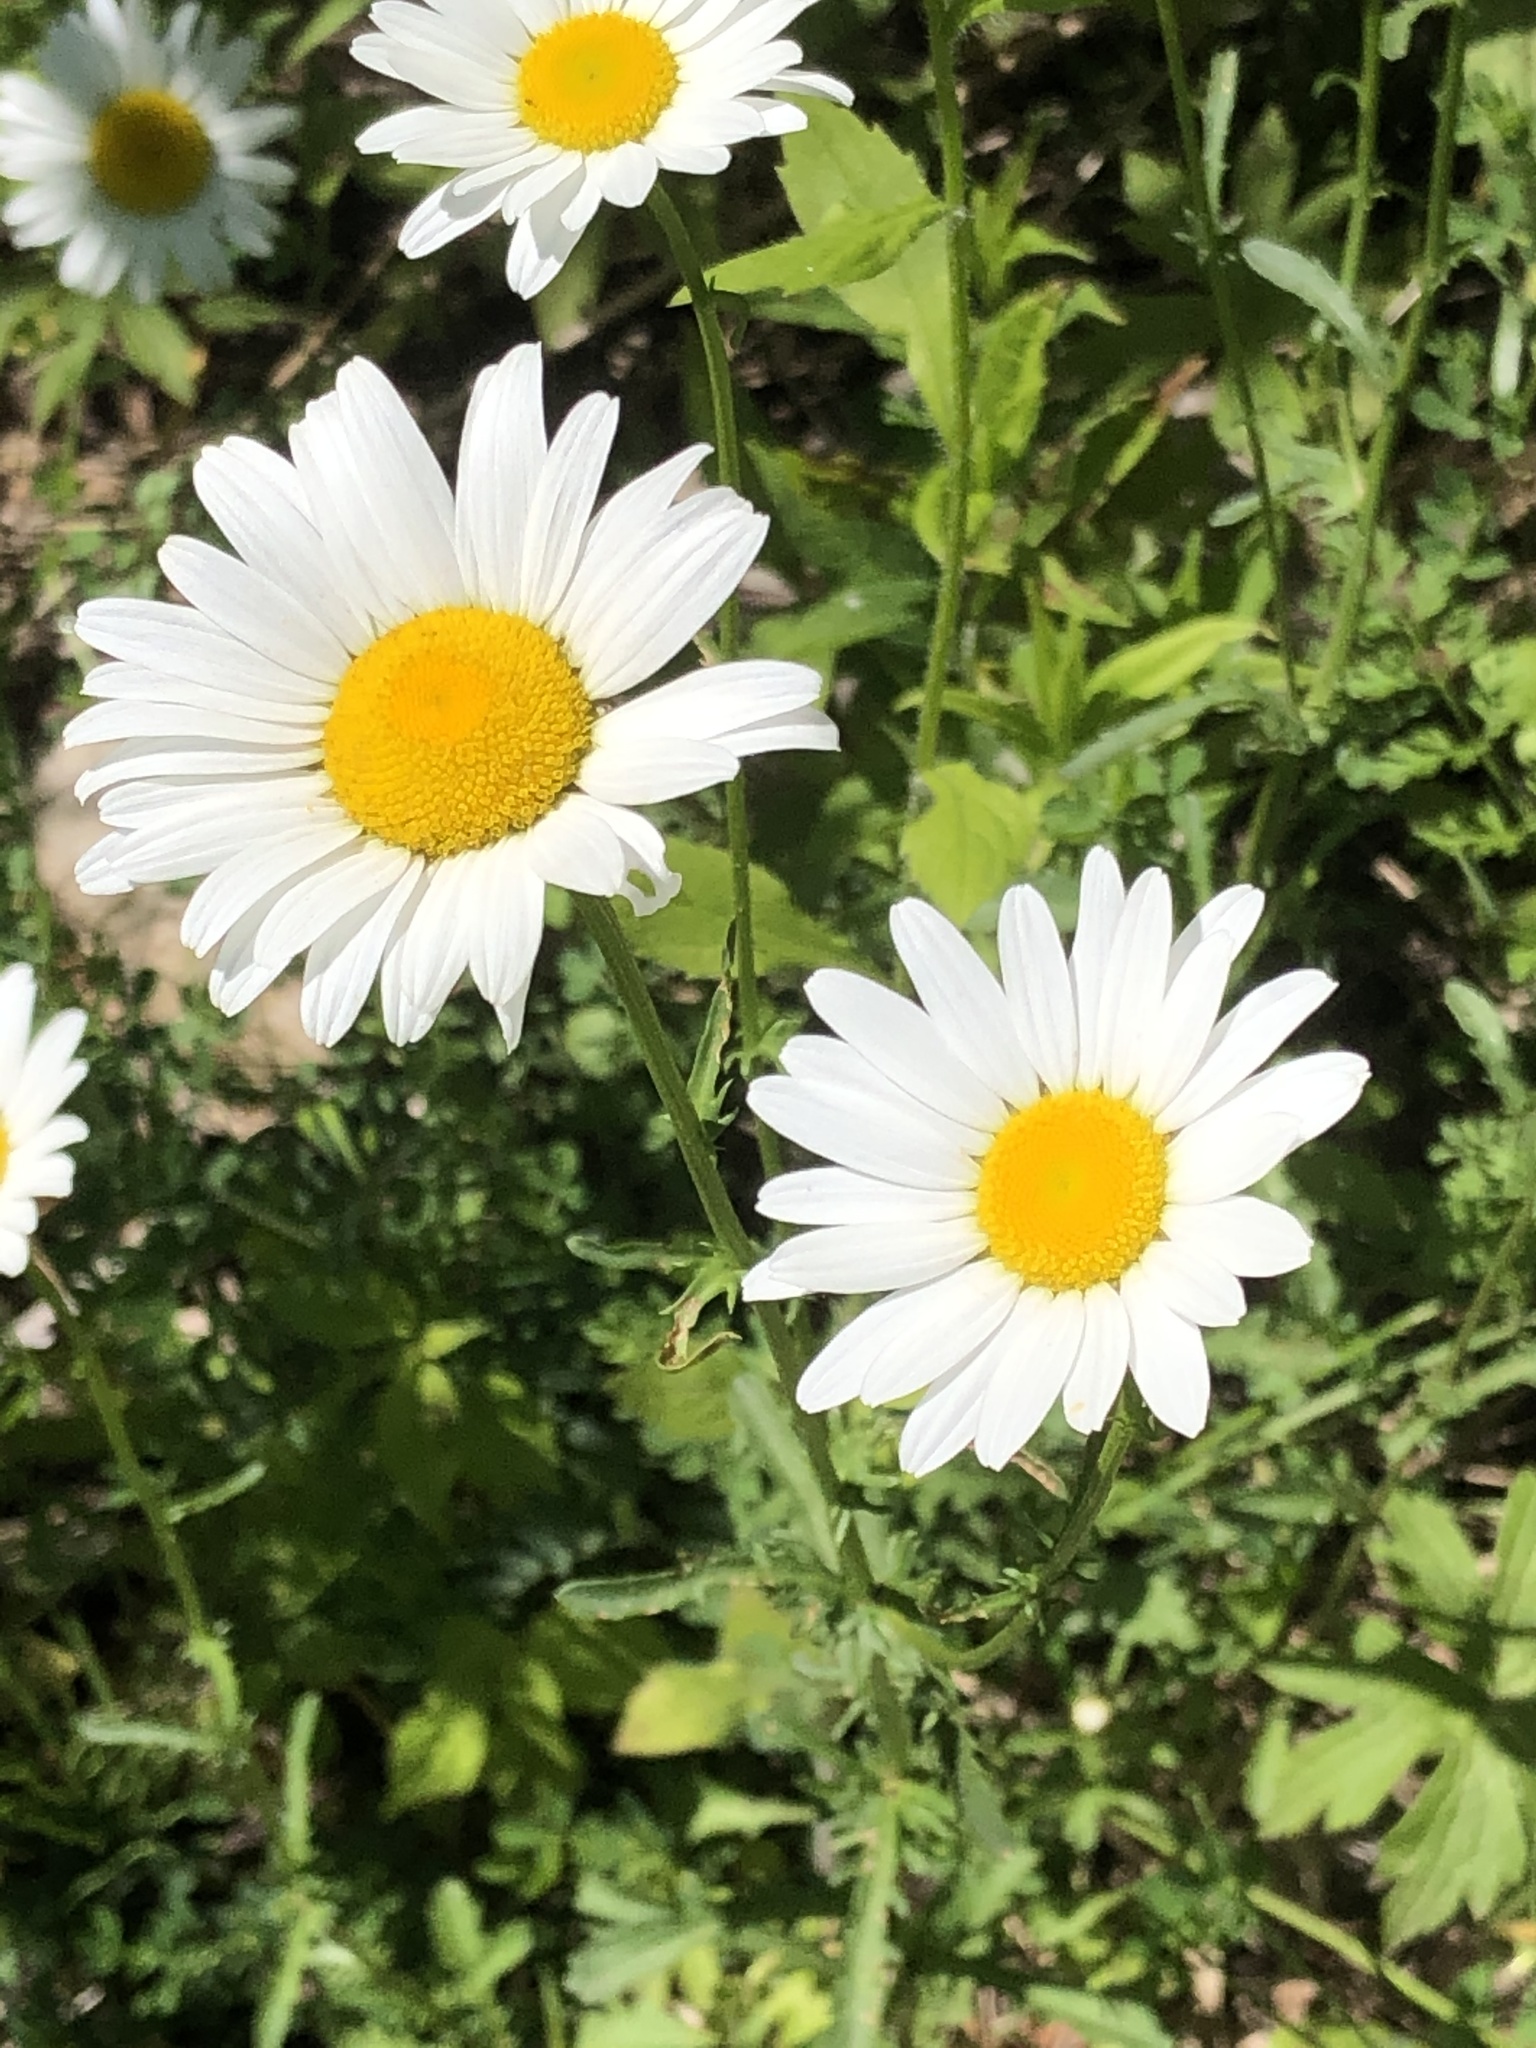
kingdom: Plantae
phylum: Tracheophyta
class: Magnoliopsida
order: Asterales
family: Asteraceae
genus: Leucanthemum
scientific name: Leucanthemum vulgare
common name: Oxeye daisy
